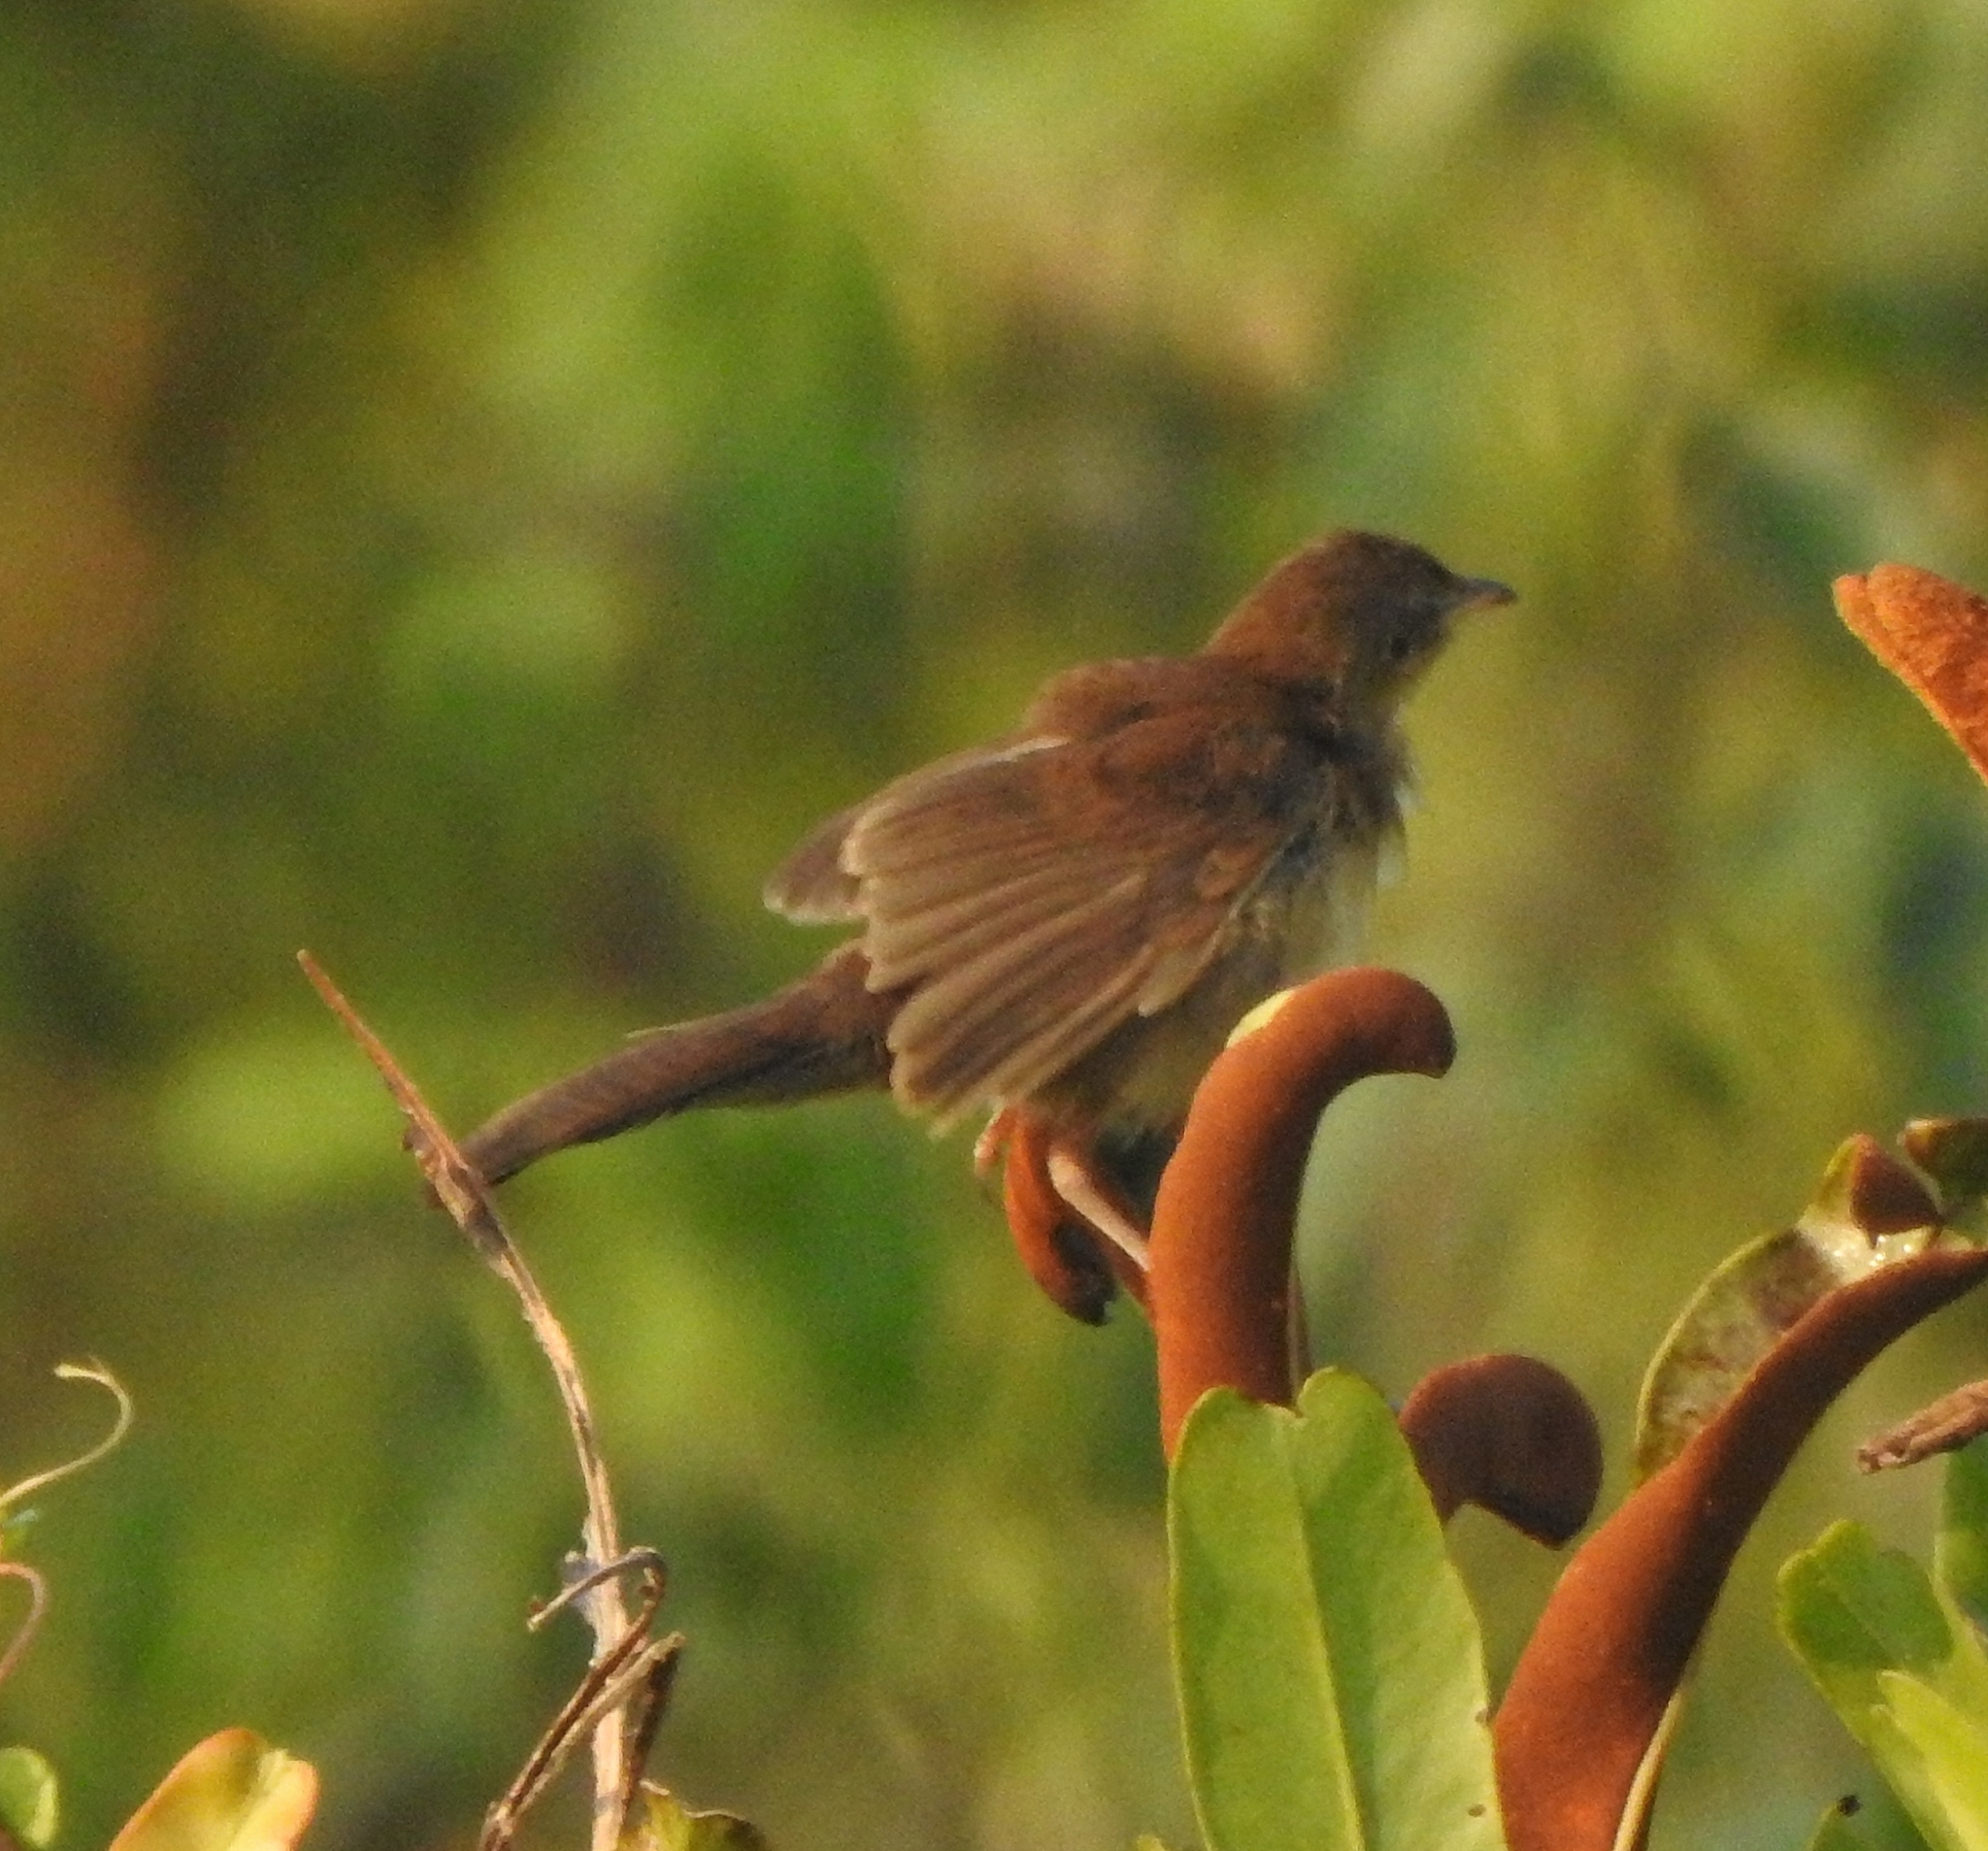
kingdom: Animalia
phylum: Chordata
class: Aves
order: Passeriformes
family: Locustellidae
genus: Schoenicola
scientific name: Schoenicola platyurus
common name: Broad-tailed grassbird
